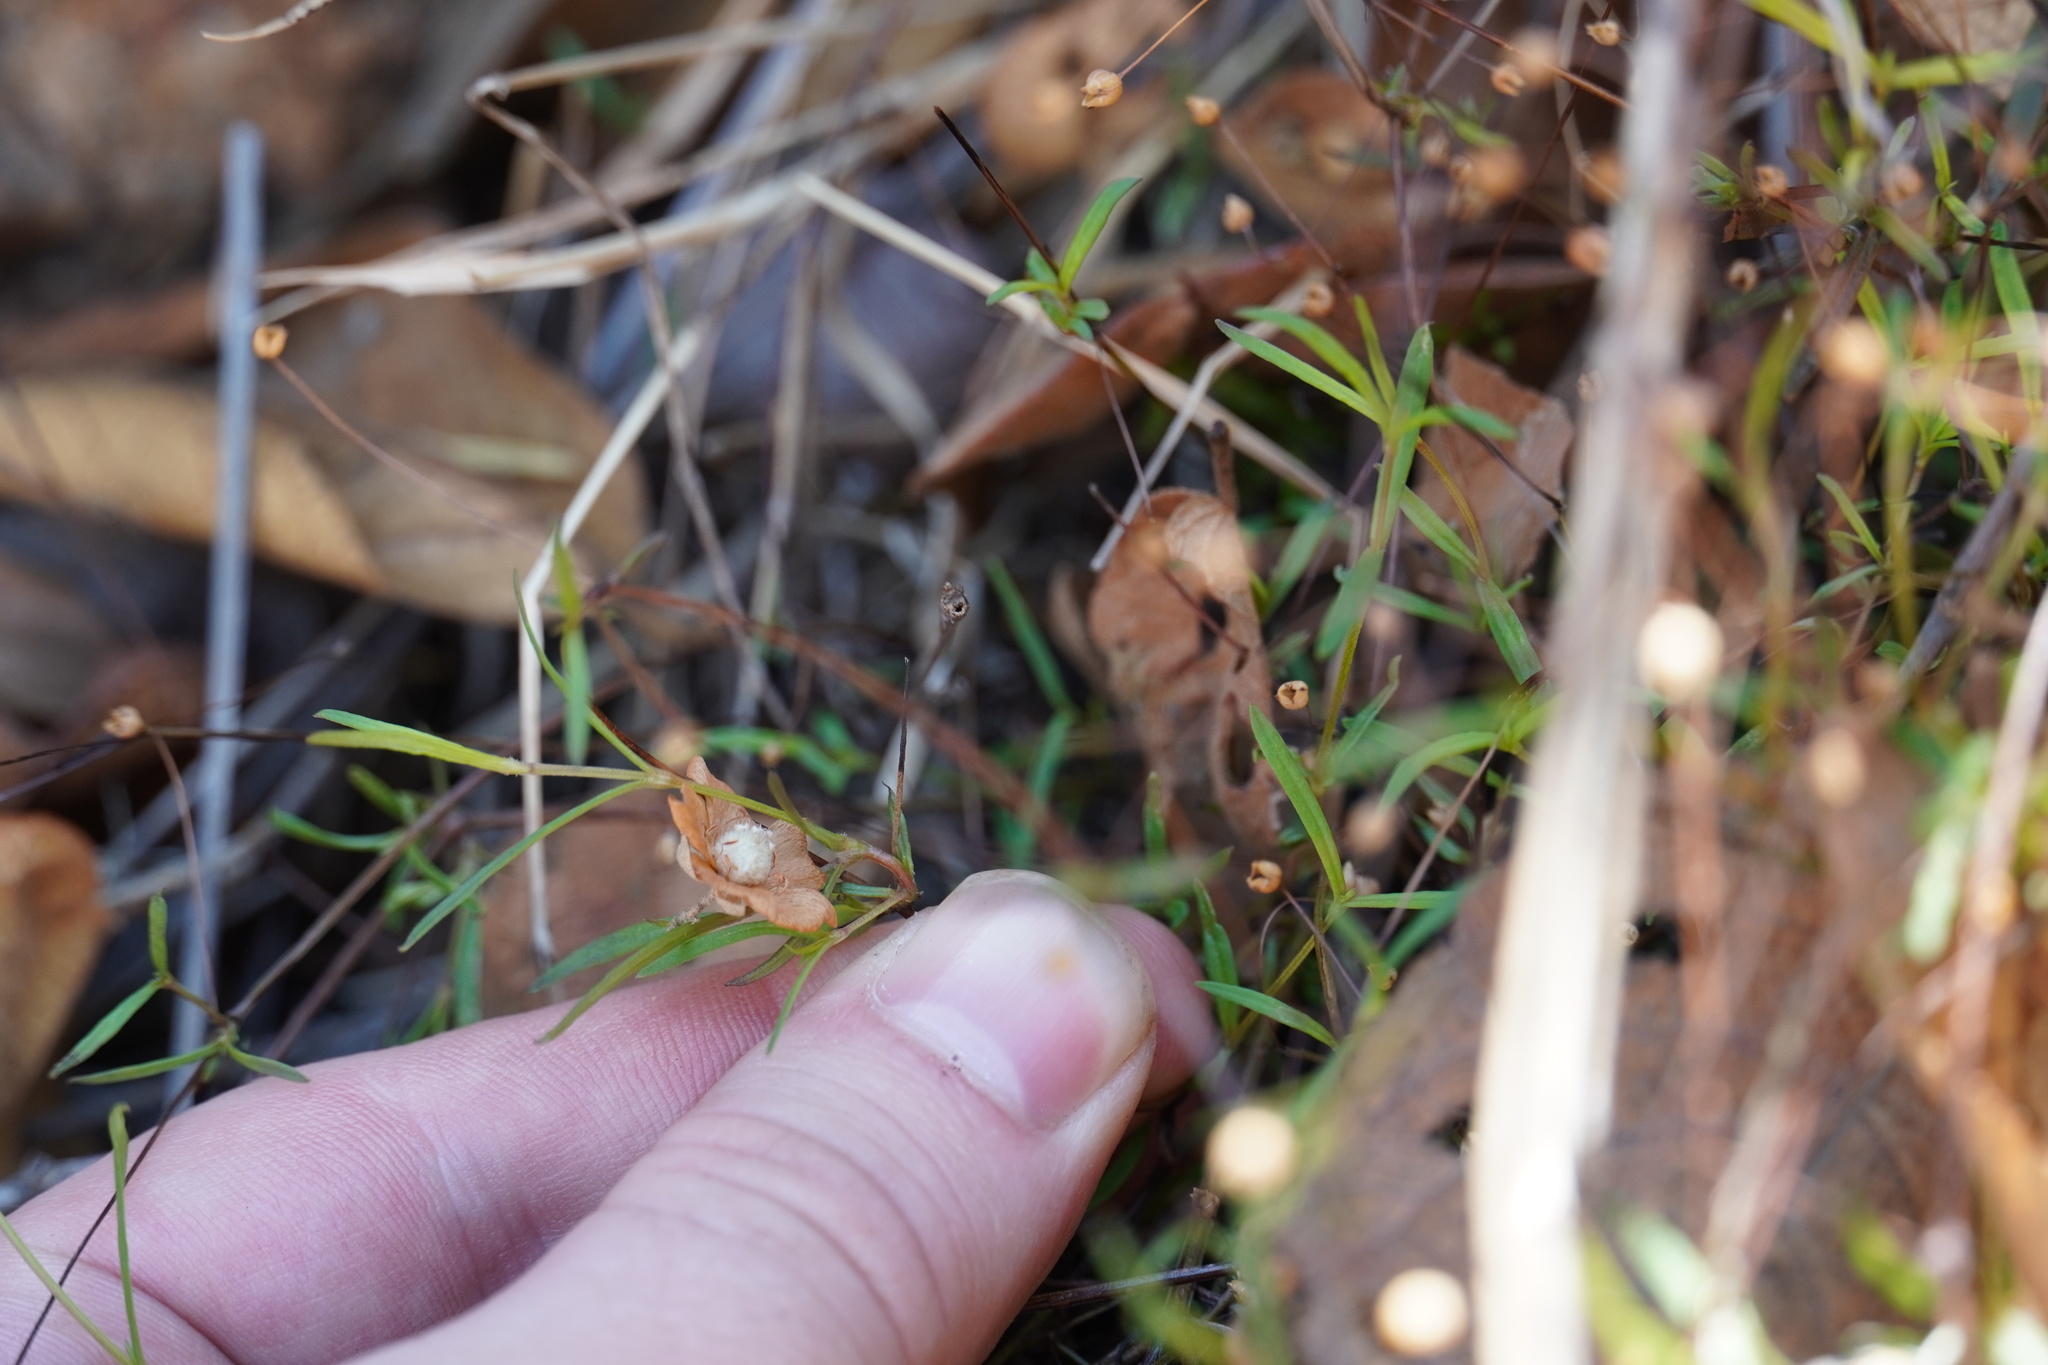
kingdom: Plantae
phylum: Tracheophyta
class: Magnoliopsida
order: Gentianales
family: Rubiaceae
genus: Oldenlandia
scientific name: Oldenlandia herbacea
